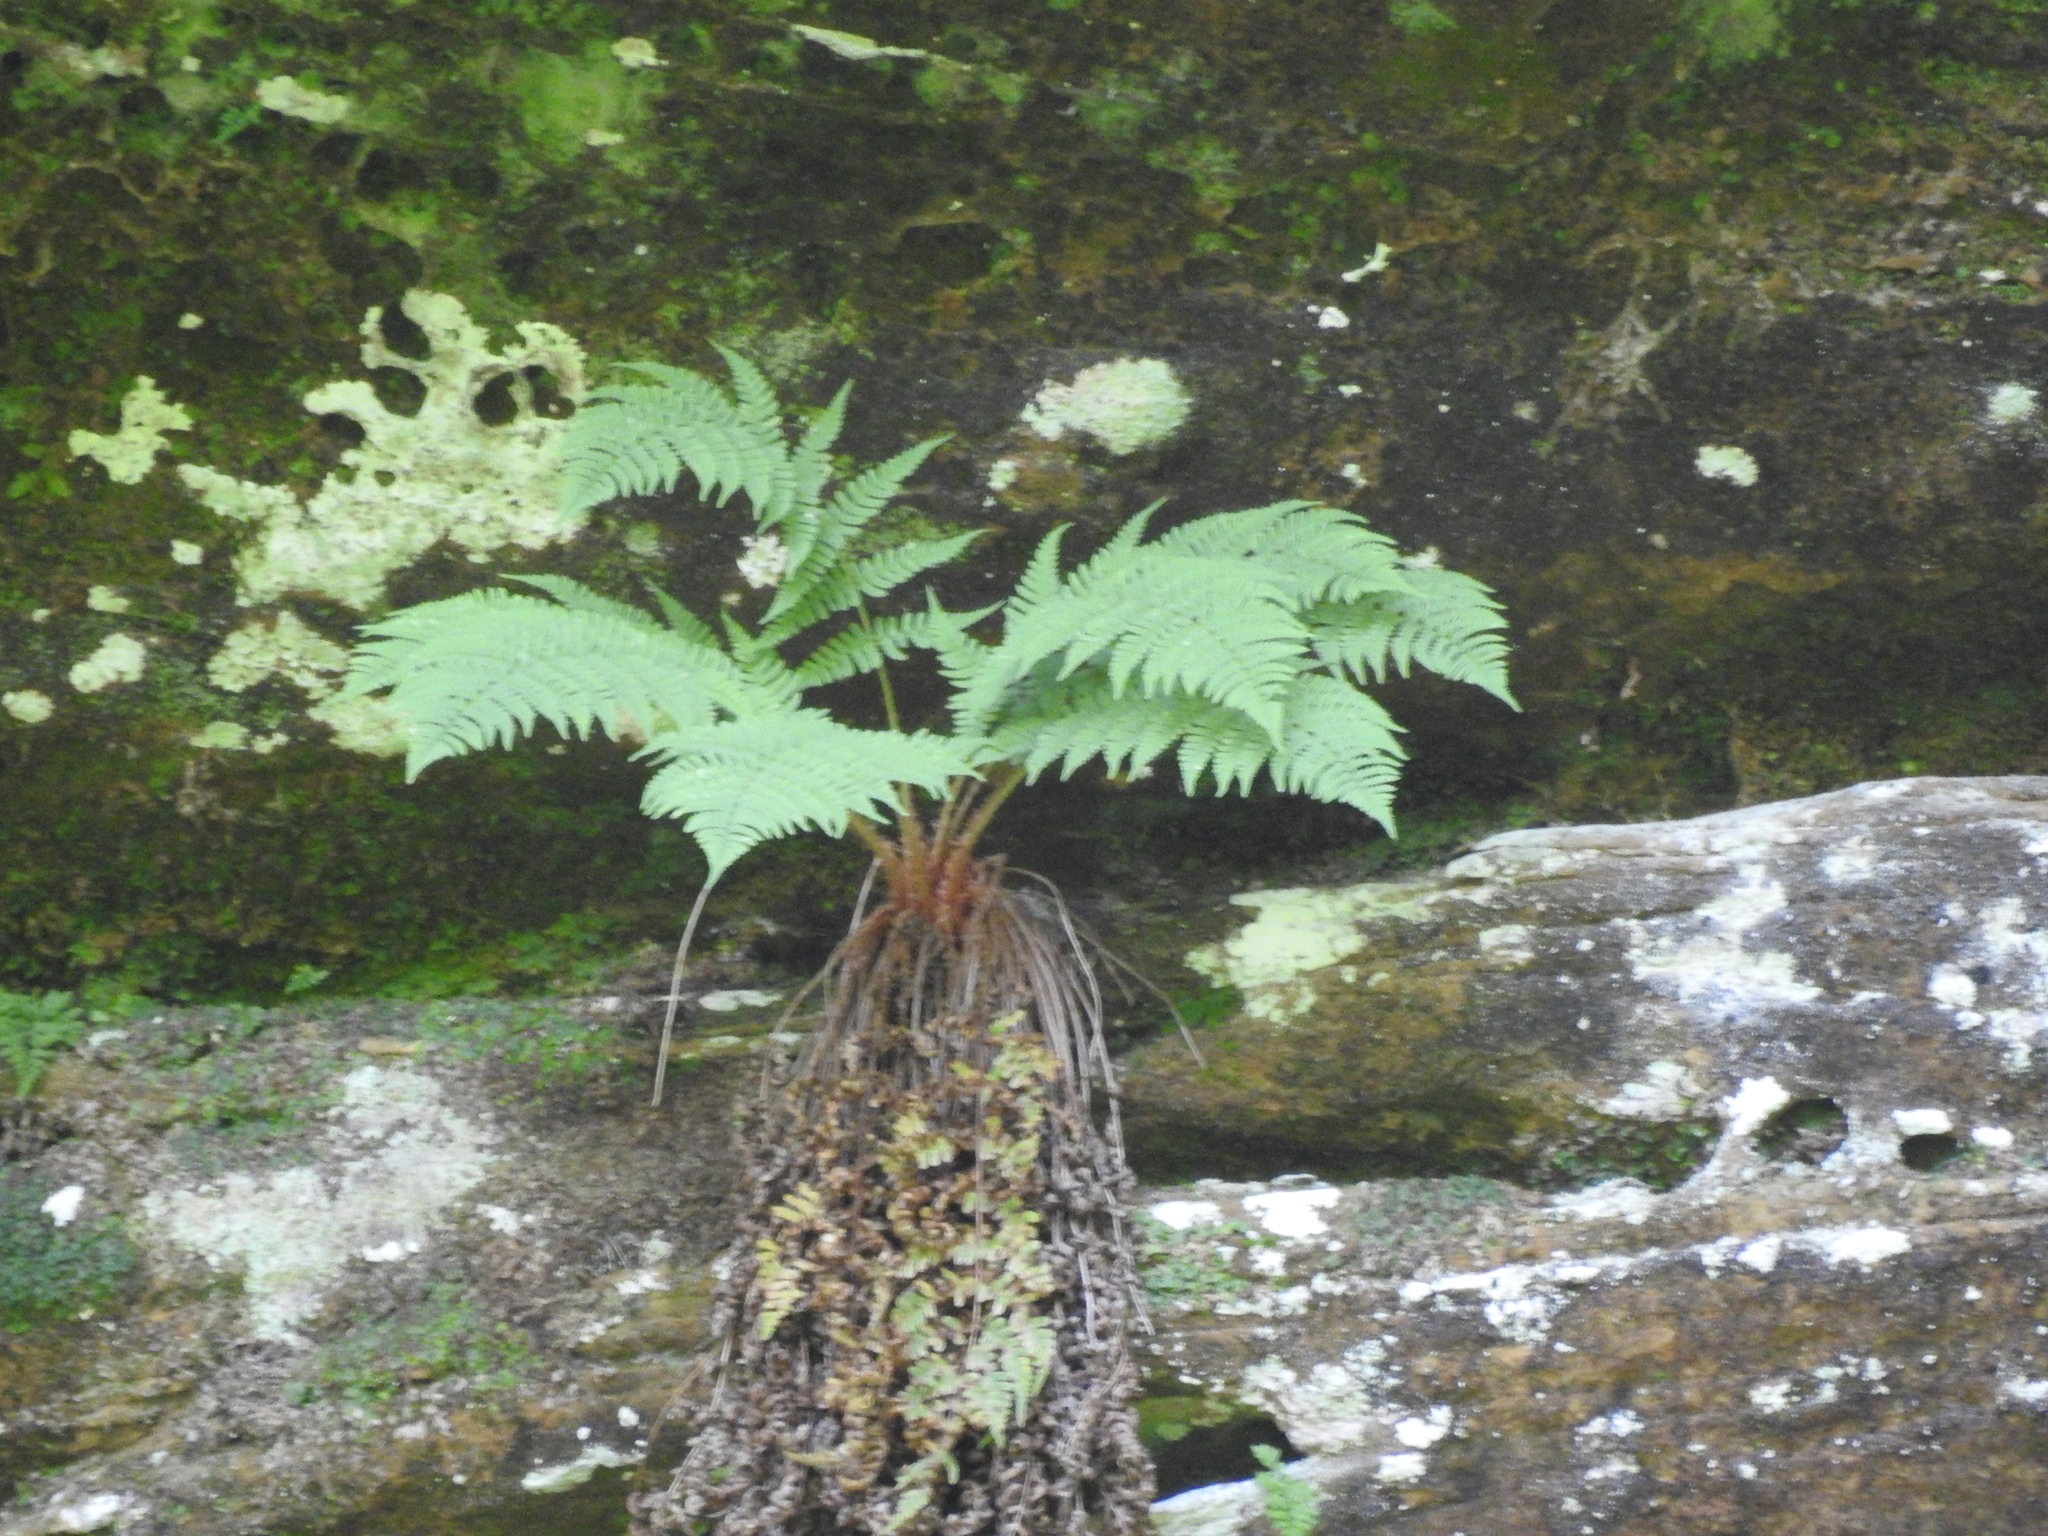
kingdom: Plantae
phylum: Tracheophyta
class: Polypodiopsida
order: Polypodiales
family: Dryopteridaceae
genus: Dryopteris
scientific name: Dryopteris marginalis
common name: Marginal wood fern
